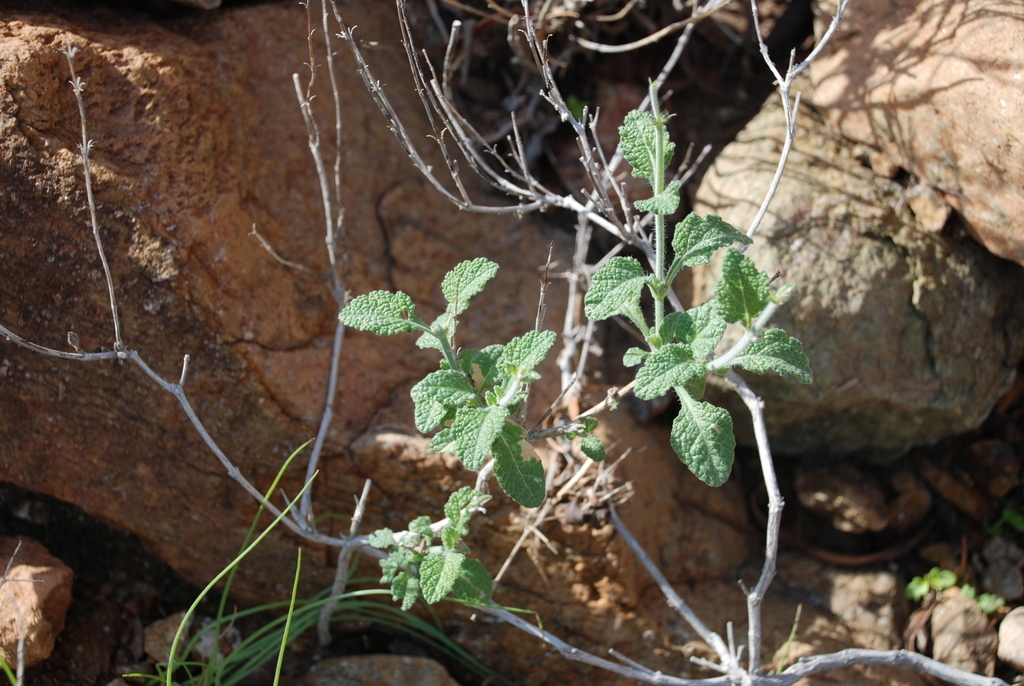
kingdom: Plantae
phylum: Tracheophyta
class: Magnoliopsida
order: Lamiales
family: Lamiaceae
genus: Salvia
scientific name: Salvia aegyptiaca
